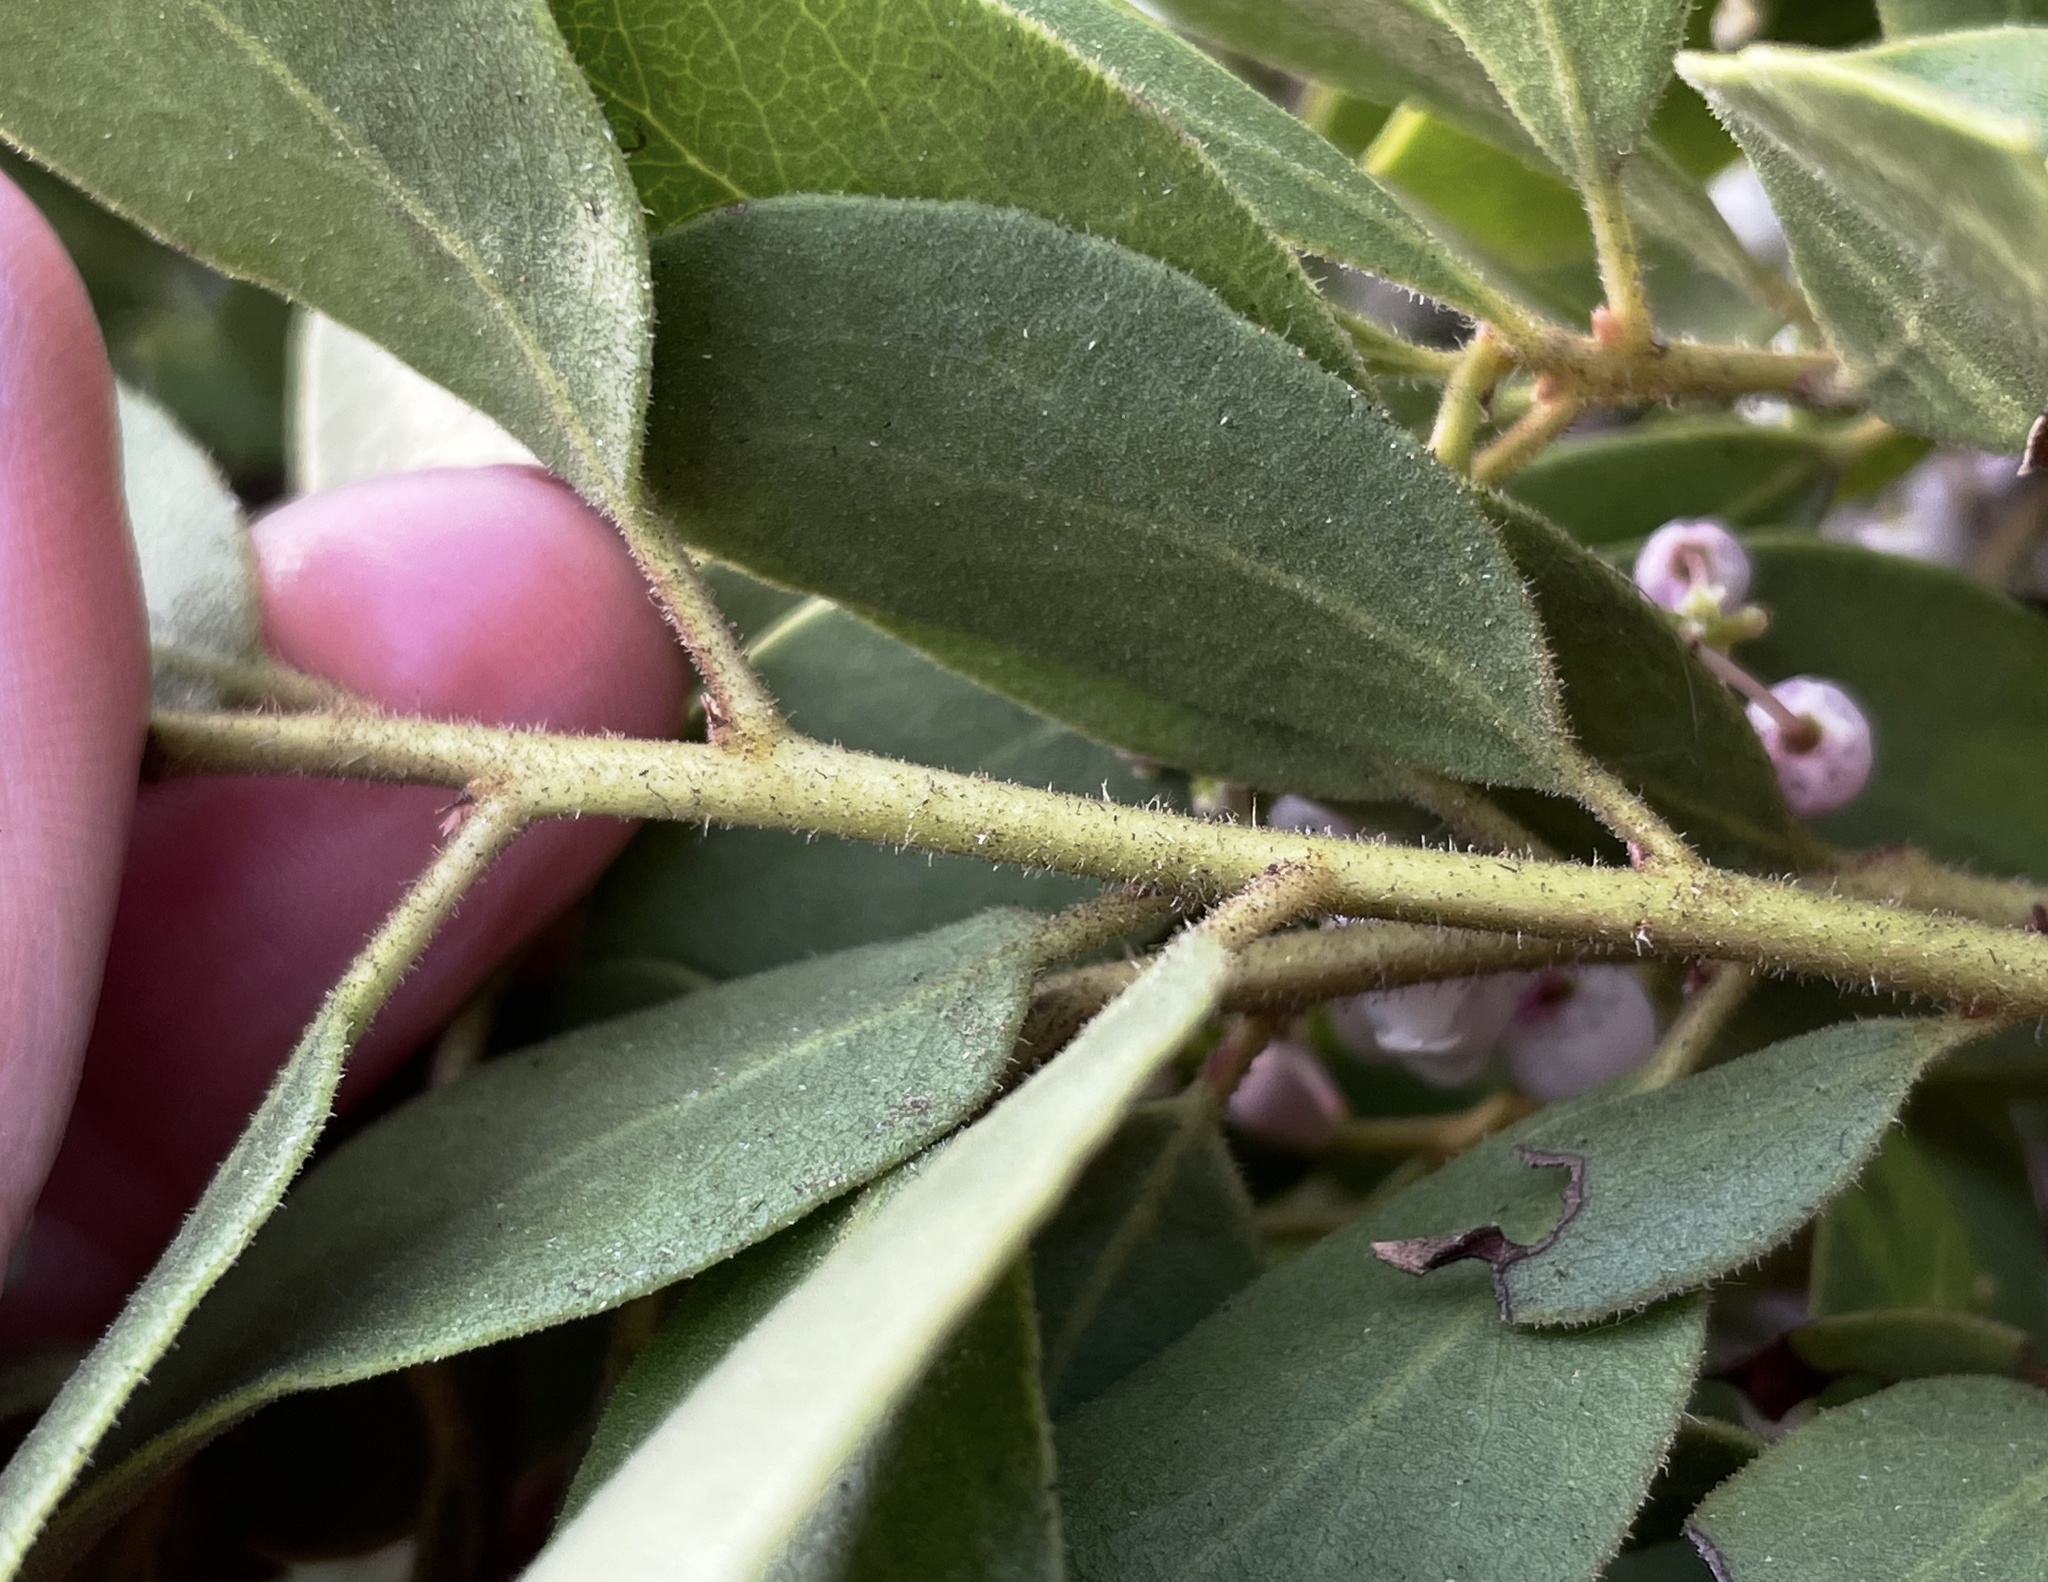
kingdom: Plantae
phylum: Tracheophyta
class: Magnoliopsida
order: Ericales
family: Ericaceae
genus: Arctostaphylos
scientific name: Arctostaphylos hispidula
